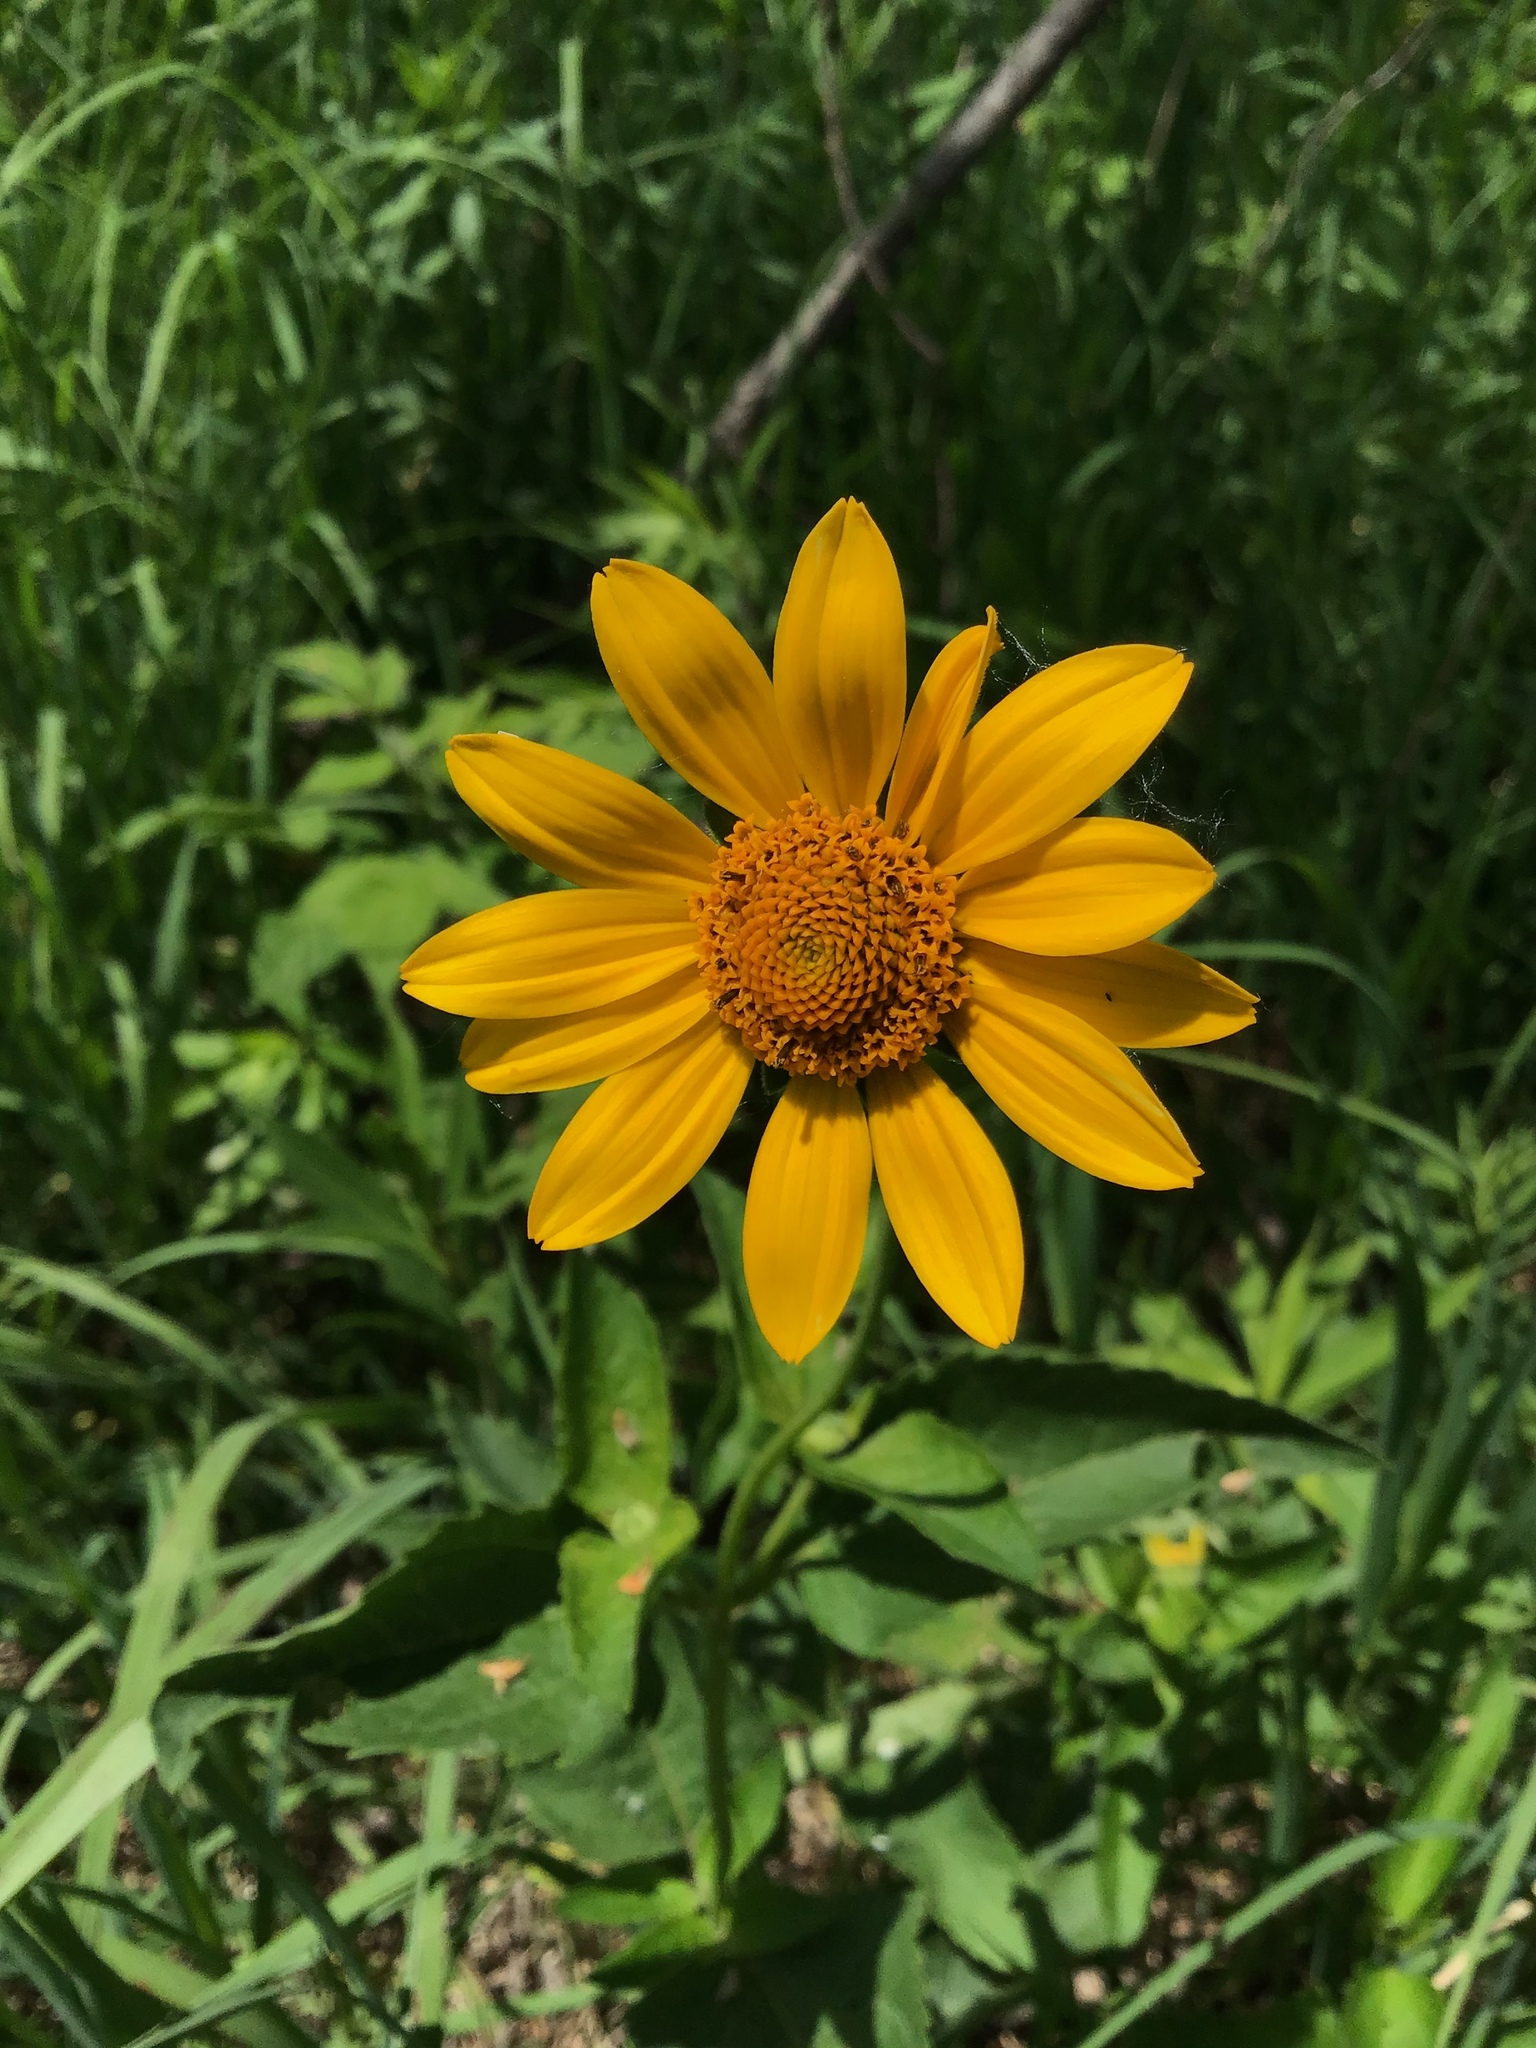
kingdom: Plantae
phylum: Tracheophyta
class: Magnoliopsida
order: Asterales
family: Asteraceae
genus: Heliopsis
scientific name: Heliopsis helianthoides
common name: False sunflower
